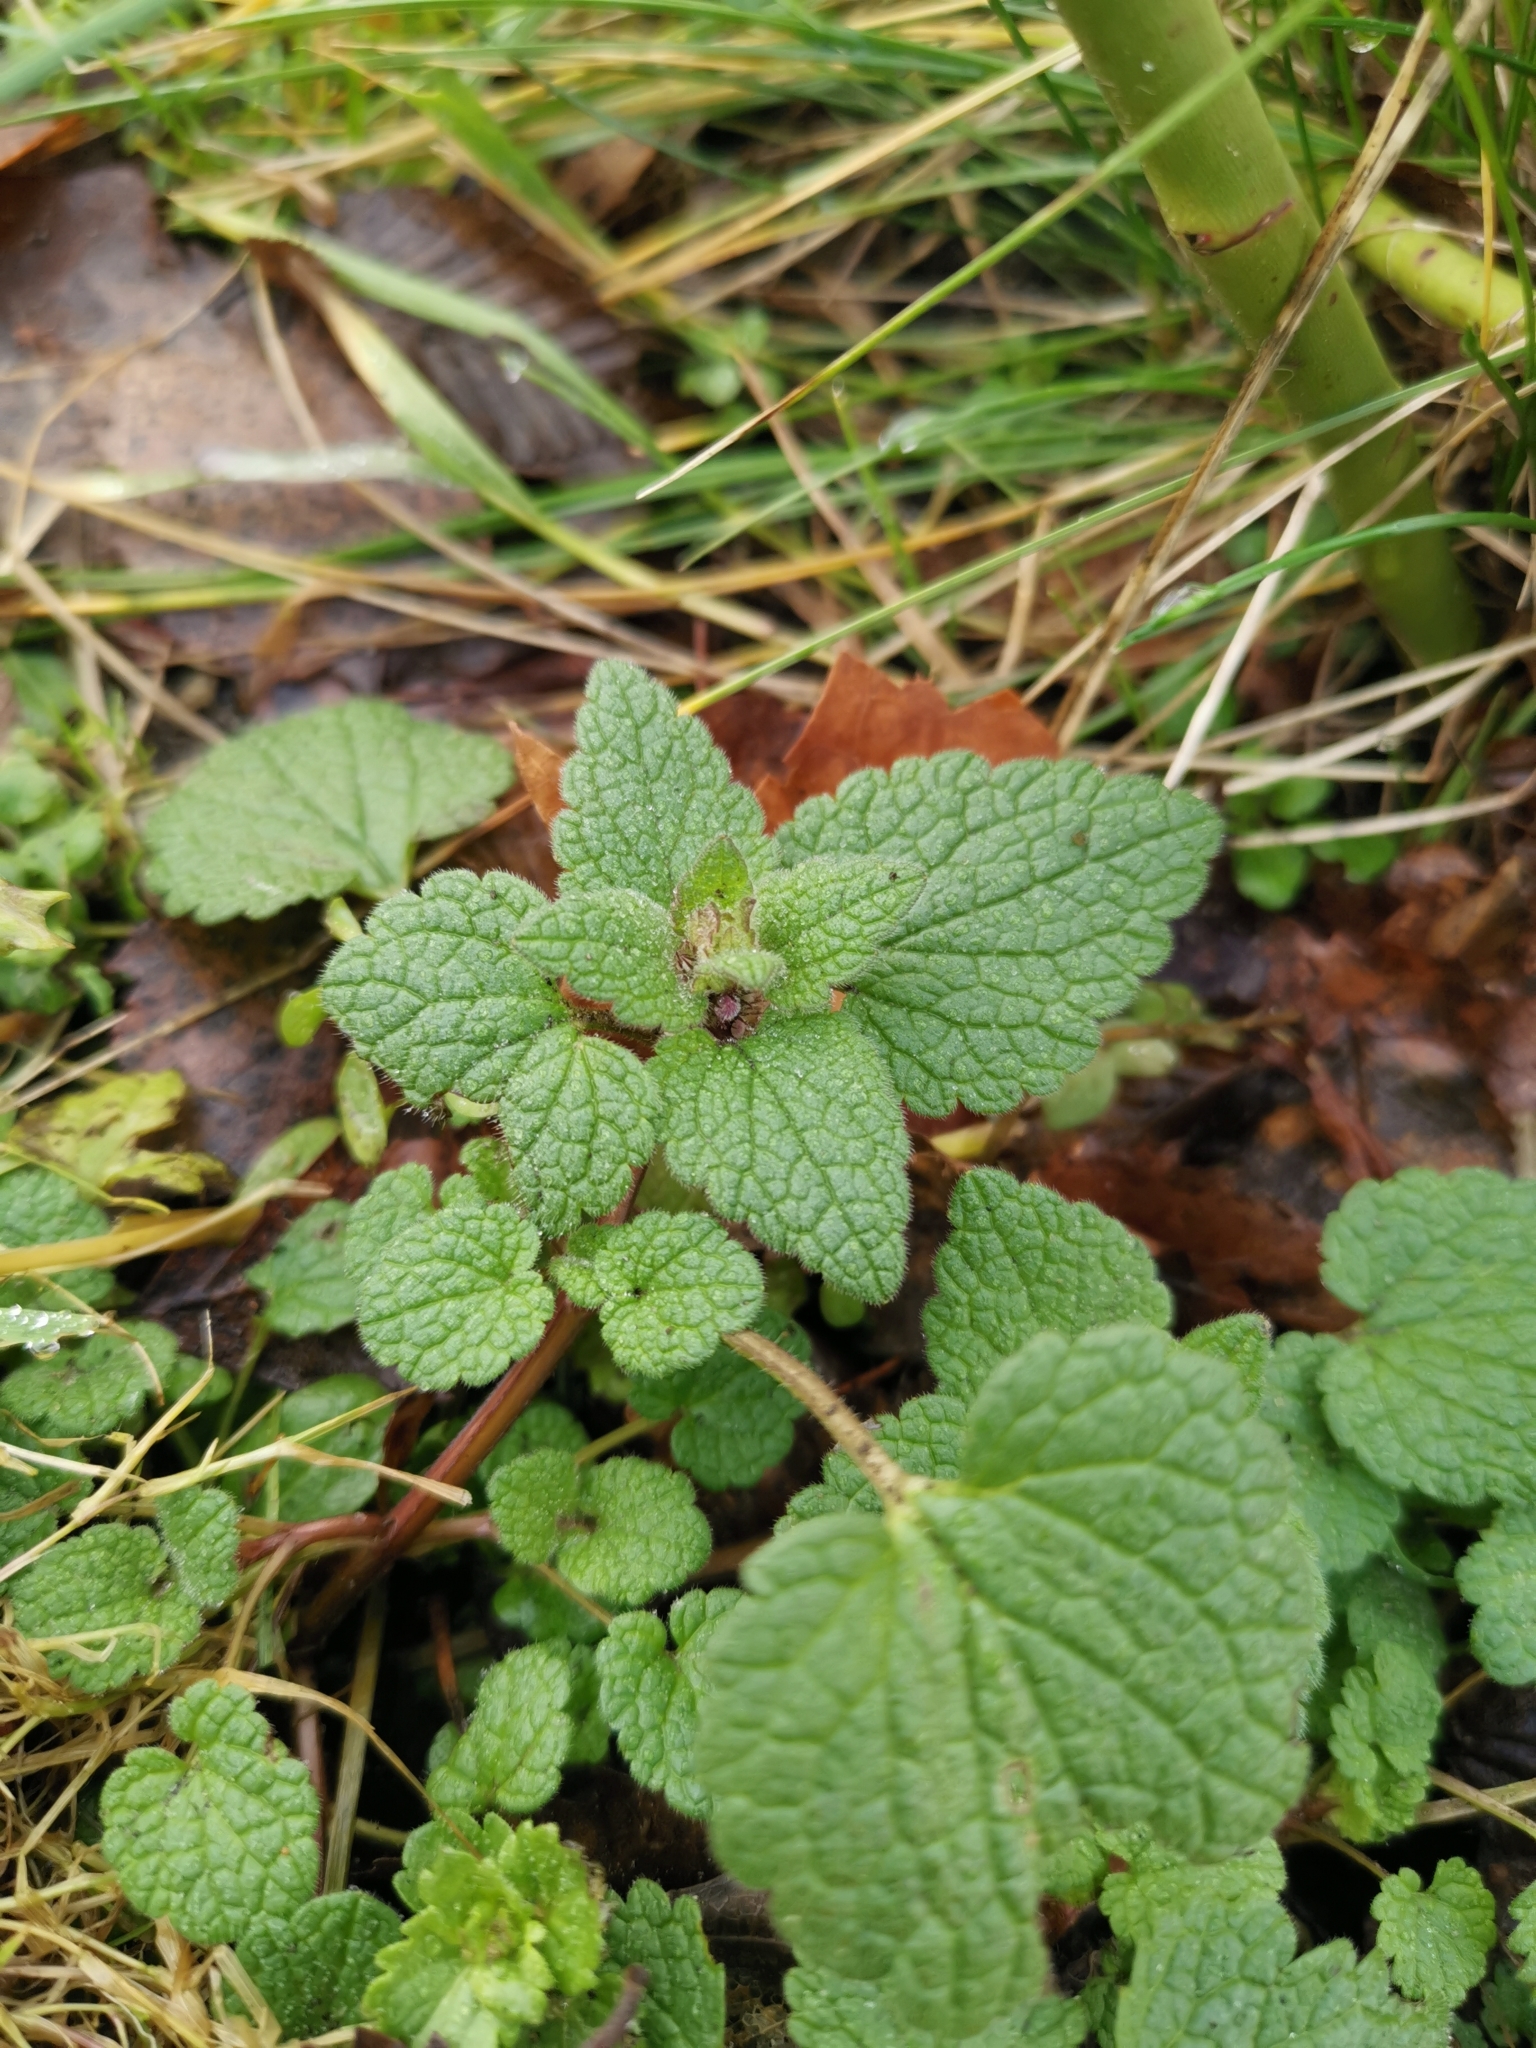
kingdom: Plantae
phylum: Tracheophyta
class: Magnoliopsida
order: Lamiales
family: Lamiaceae
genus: Lamium
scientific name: Lamium purpureum
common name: Red dead-nettle
